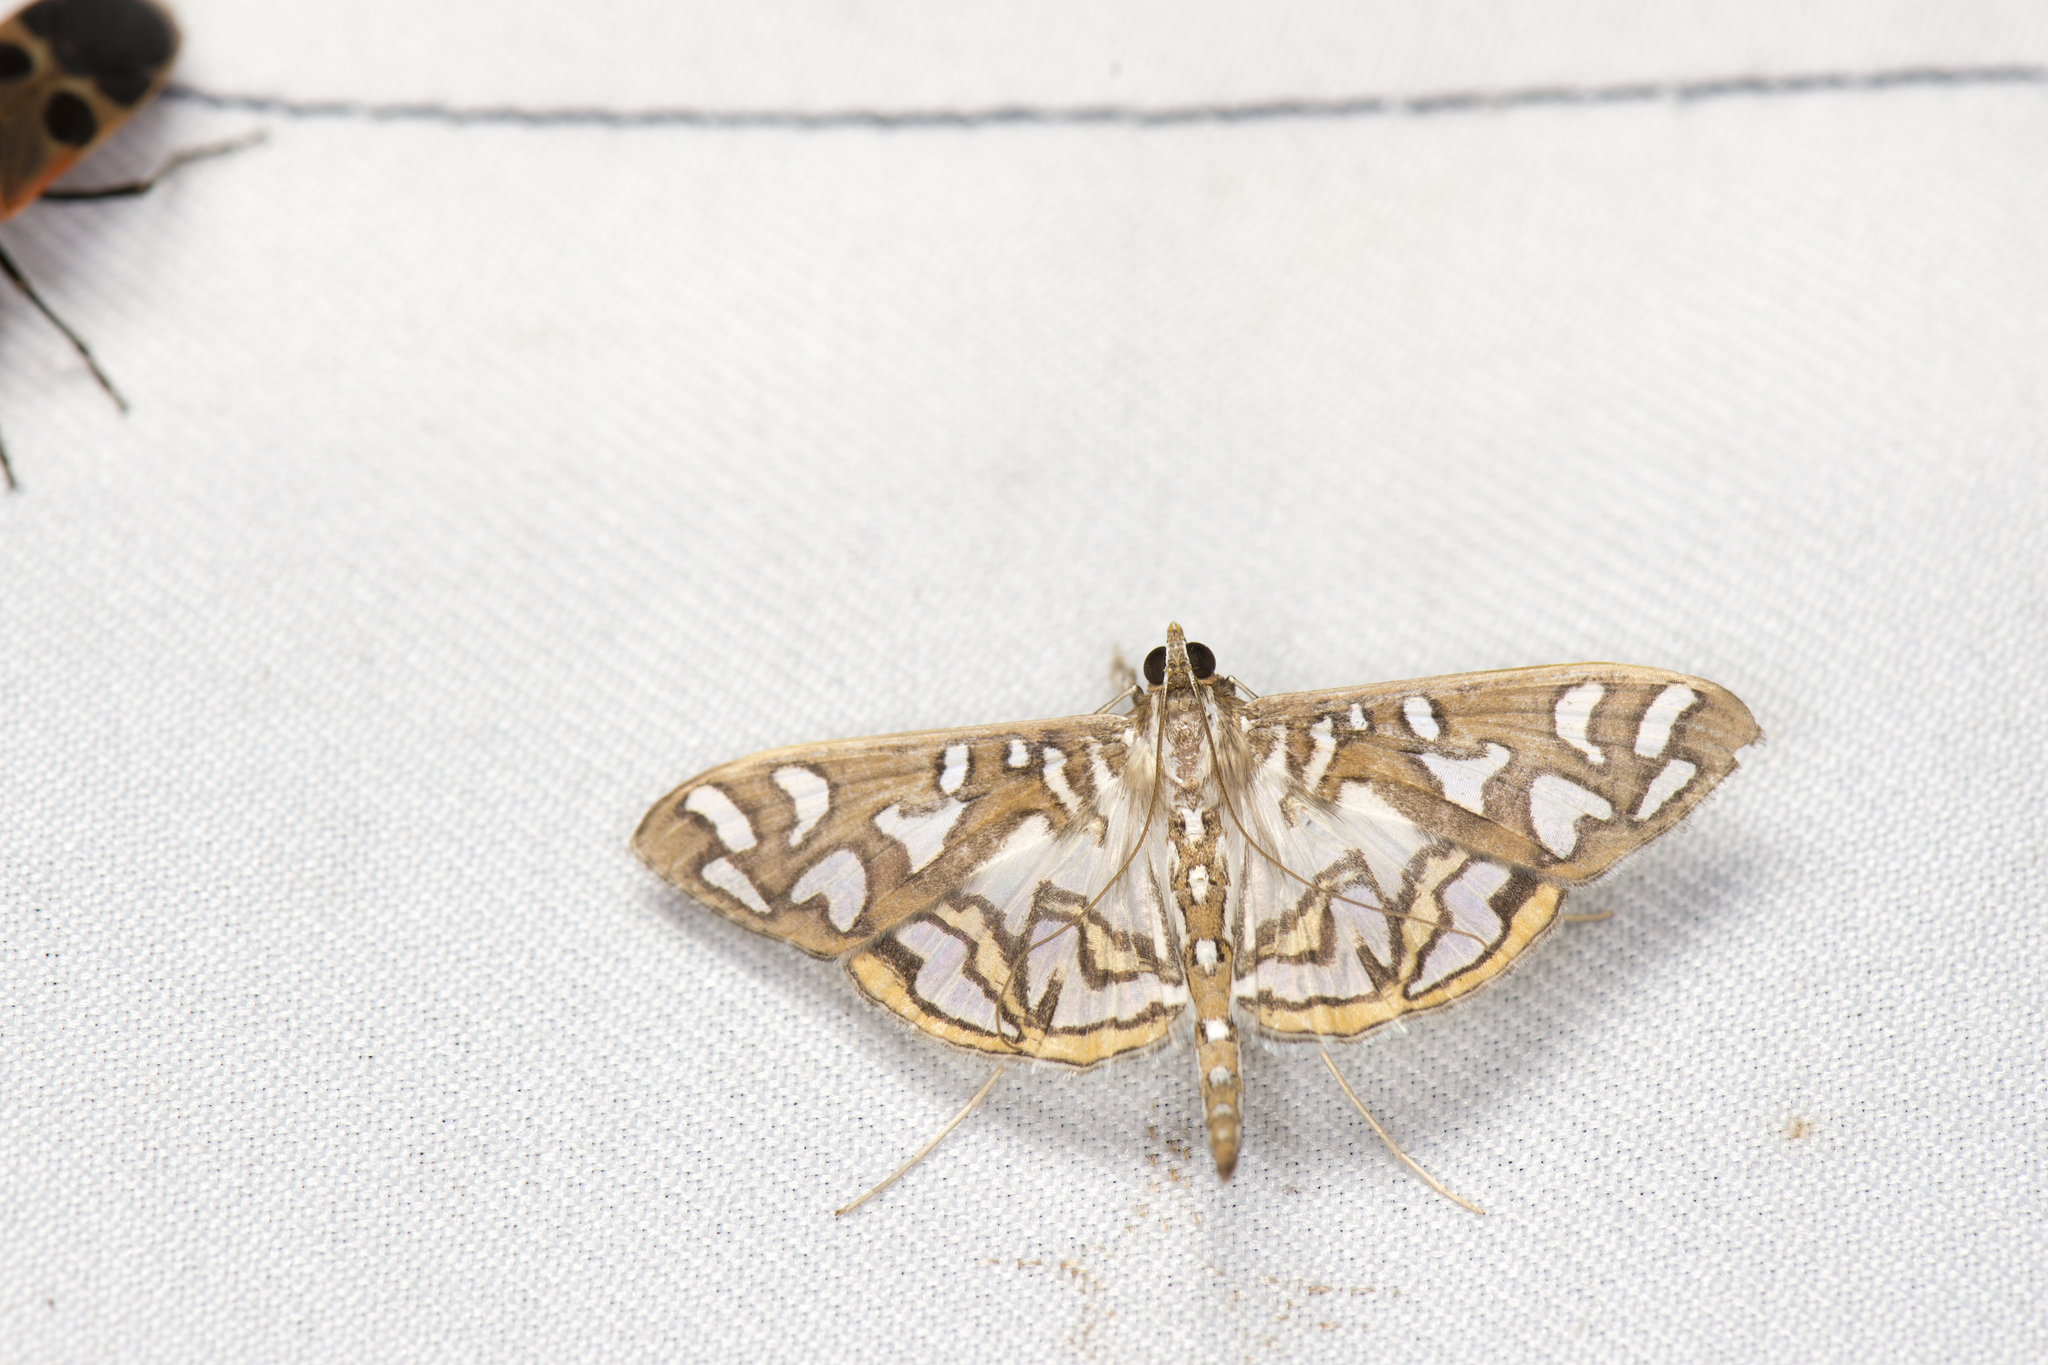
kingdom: Animalia
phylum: Arthropoda
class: Insecta
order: Lepidoptera
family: Crambidae
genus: Nausinoe
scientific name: Nausinoe perspectata
